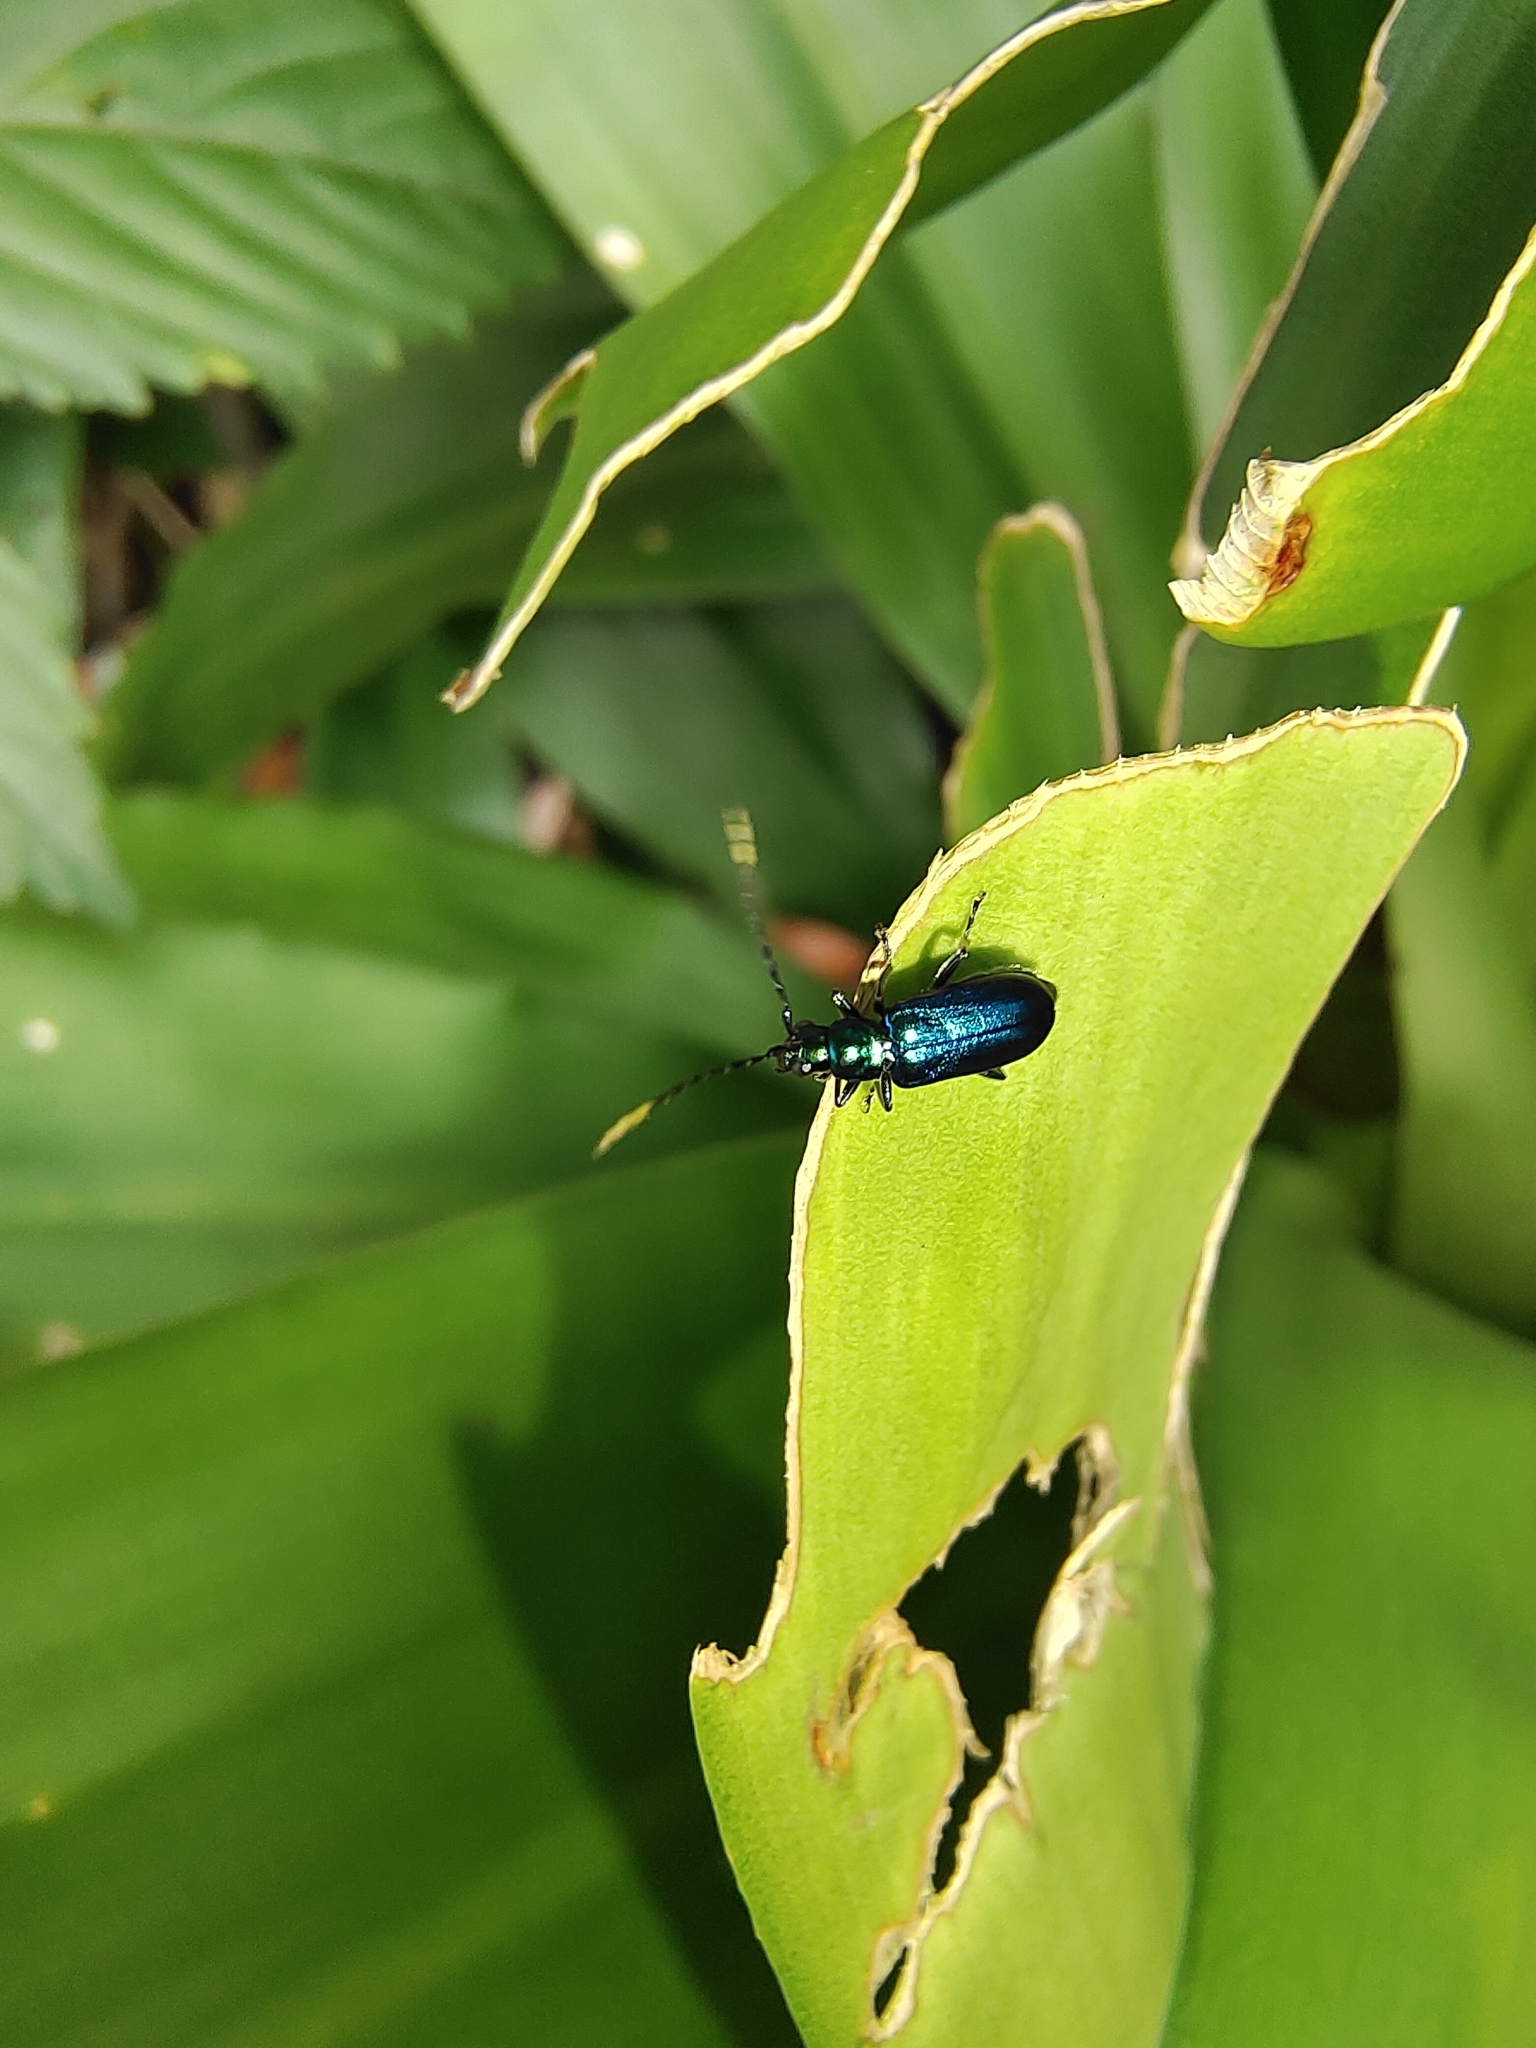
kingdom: Animalia
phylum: Arthropoda
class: Insecta
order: Coleoptera
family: Chrysomelidae
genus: Hoplosaenidea
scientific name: Hoplosaenidea
